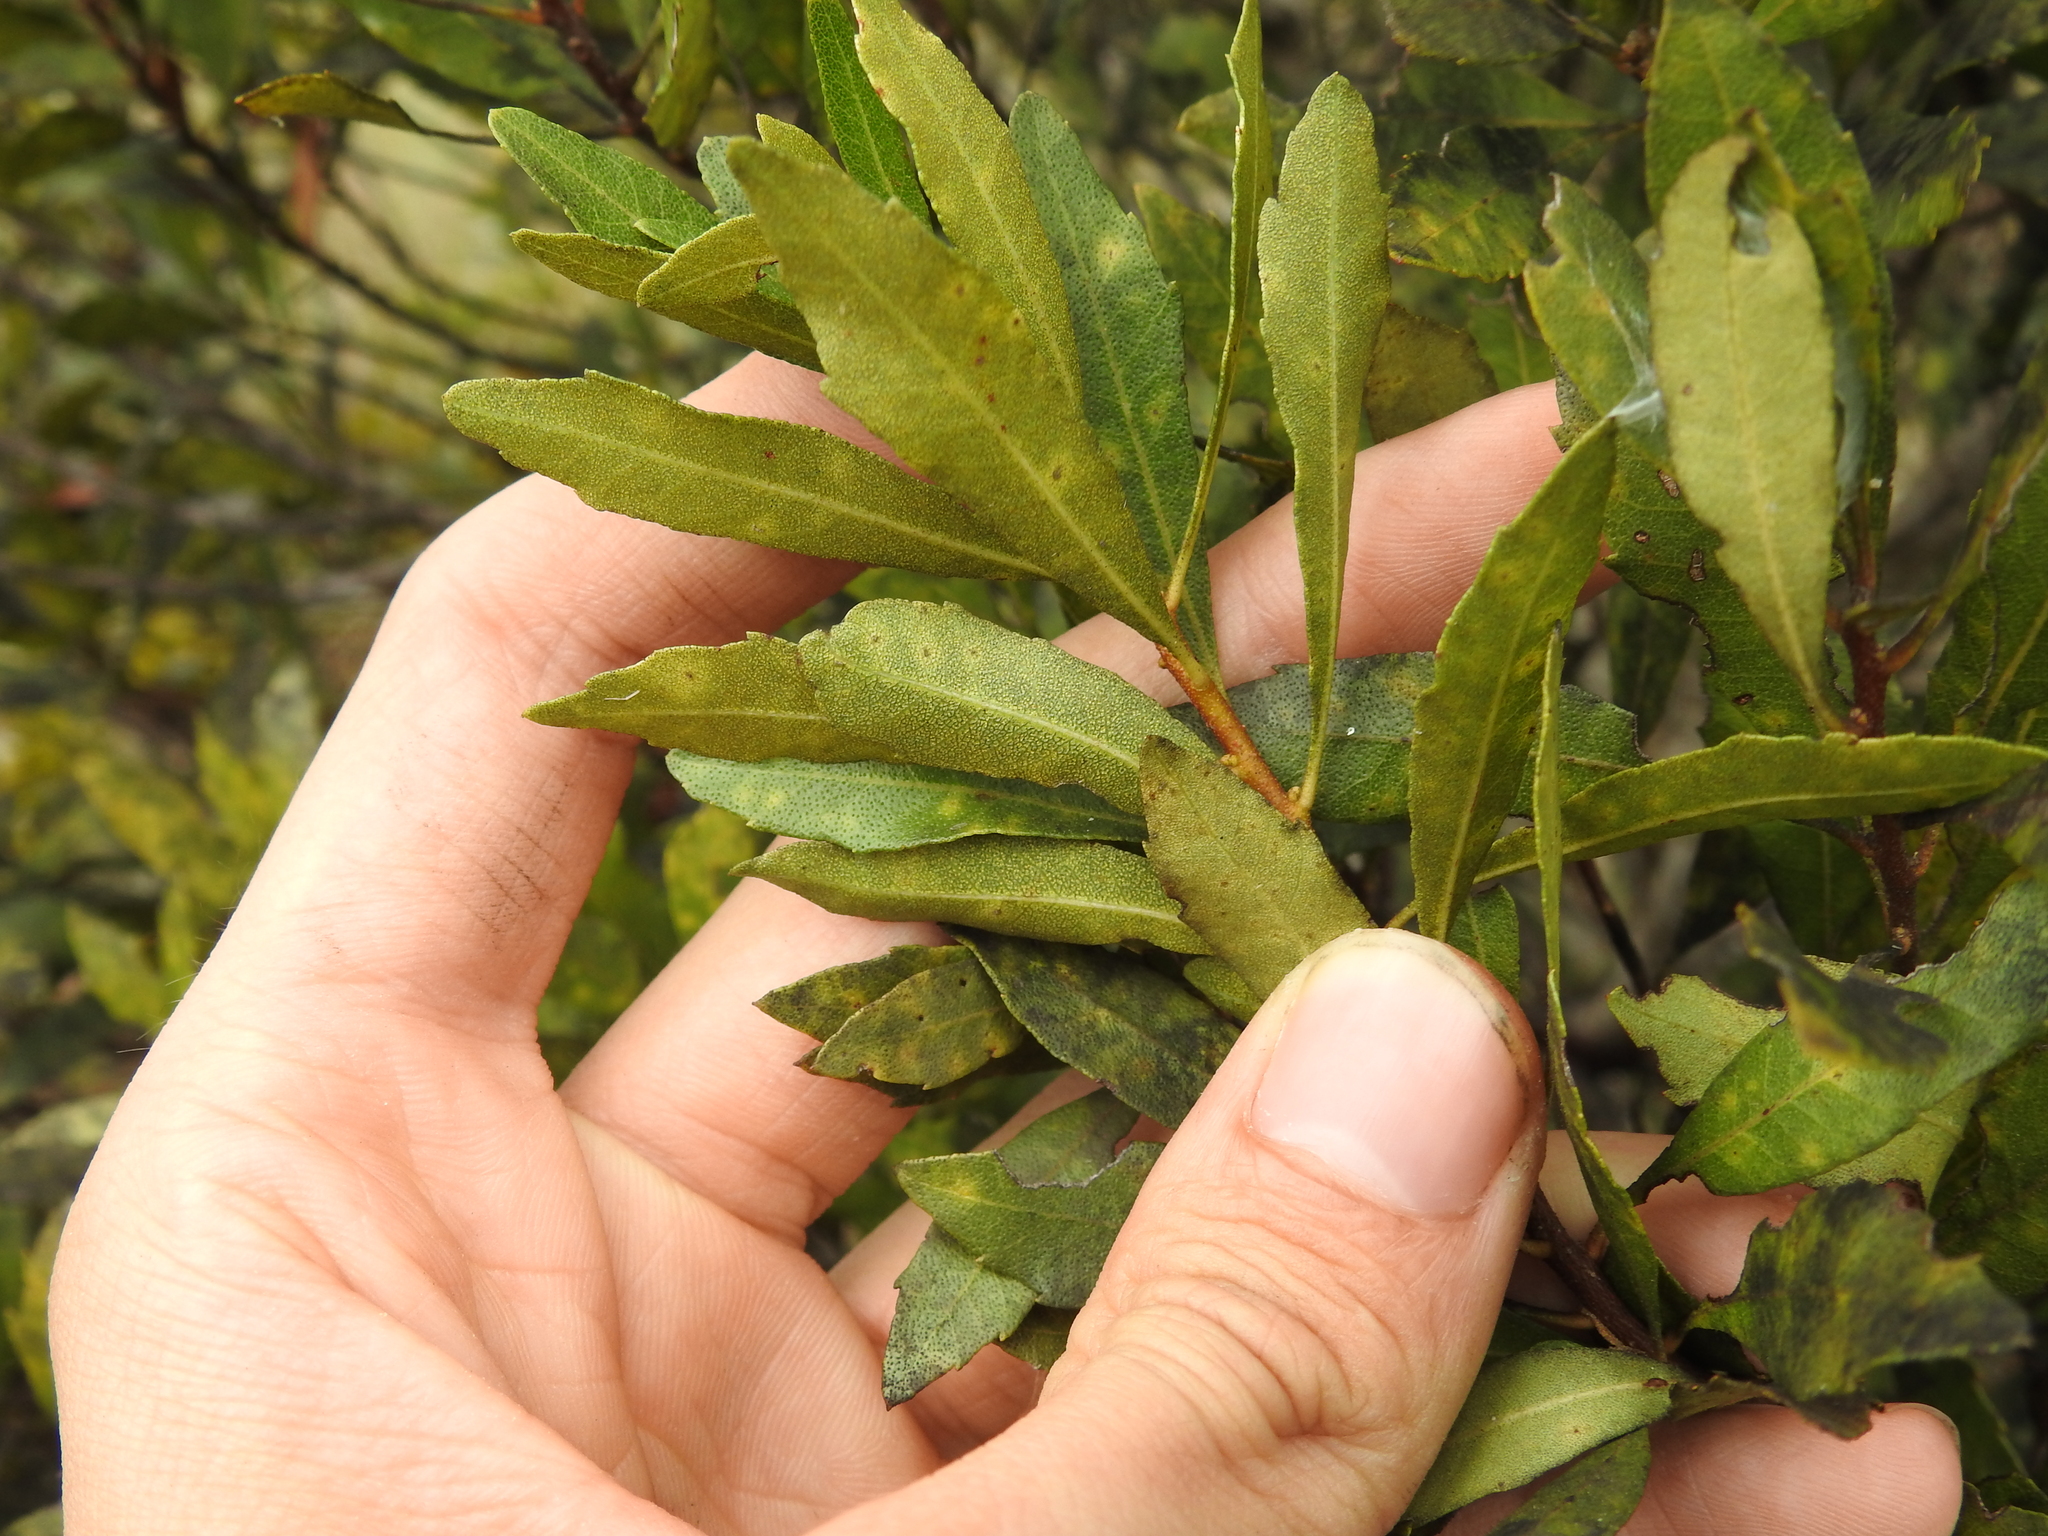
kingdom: Plantae
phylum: Tracheophyta
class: Magnoliopsida
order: Fagales
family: Myricaceae
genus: Morella
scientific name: Morella cerifera
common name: Wax myrtle
